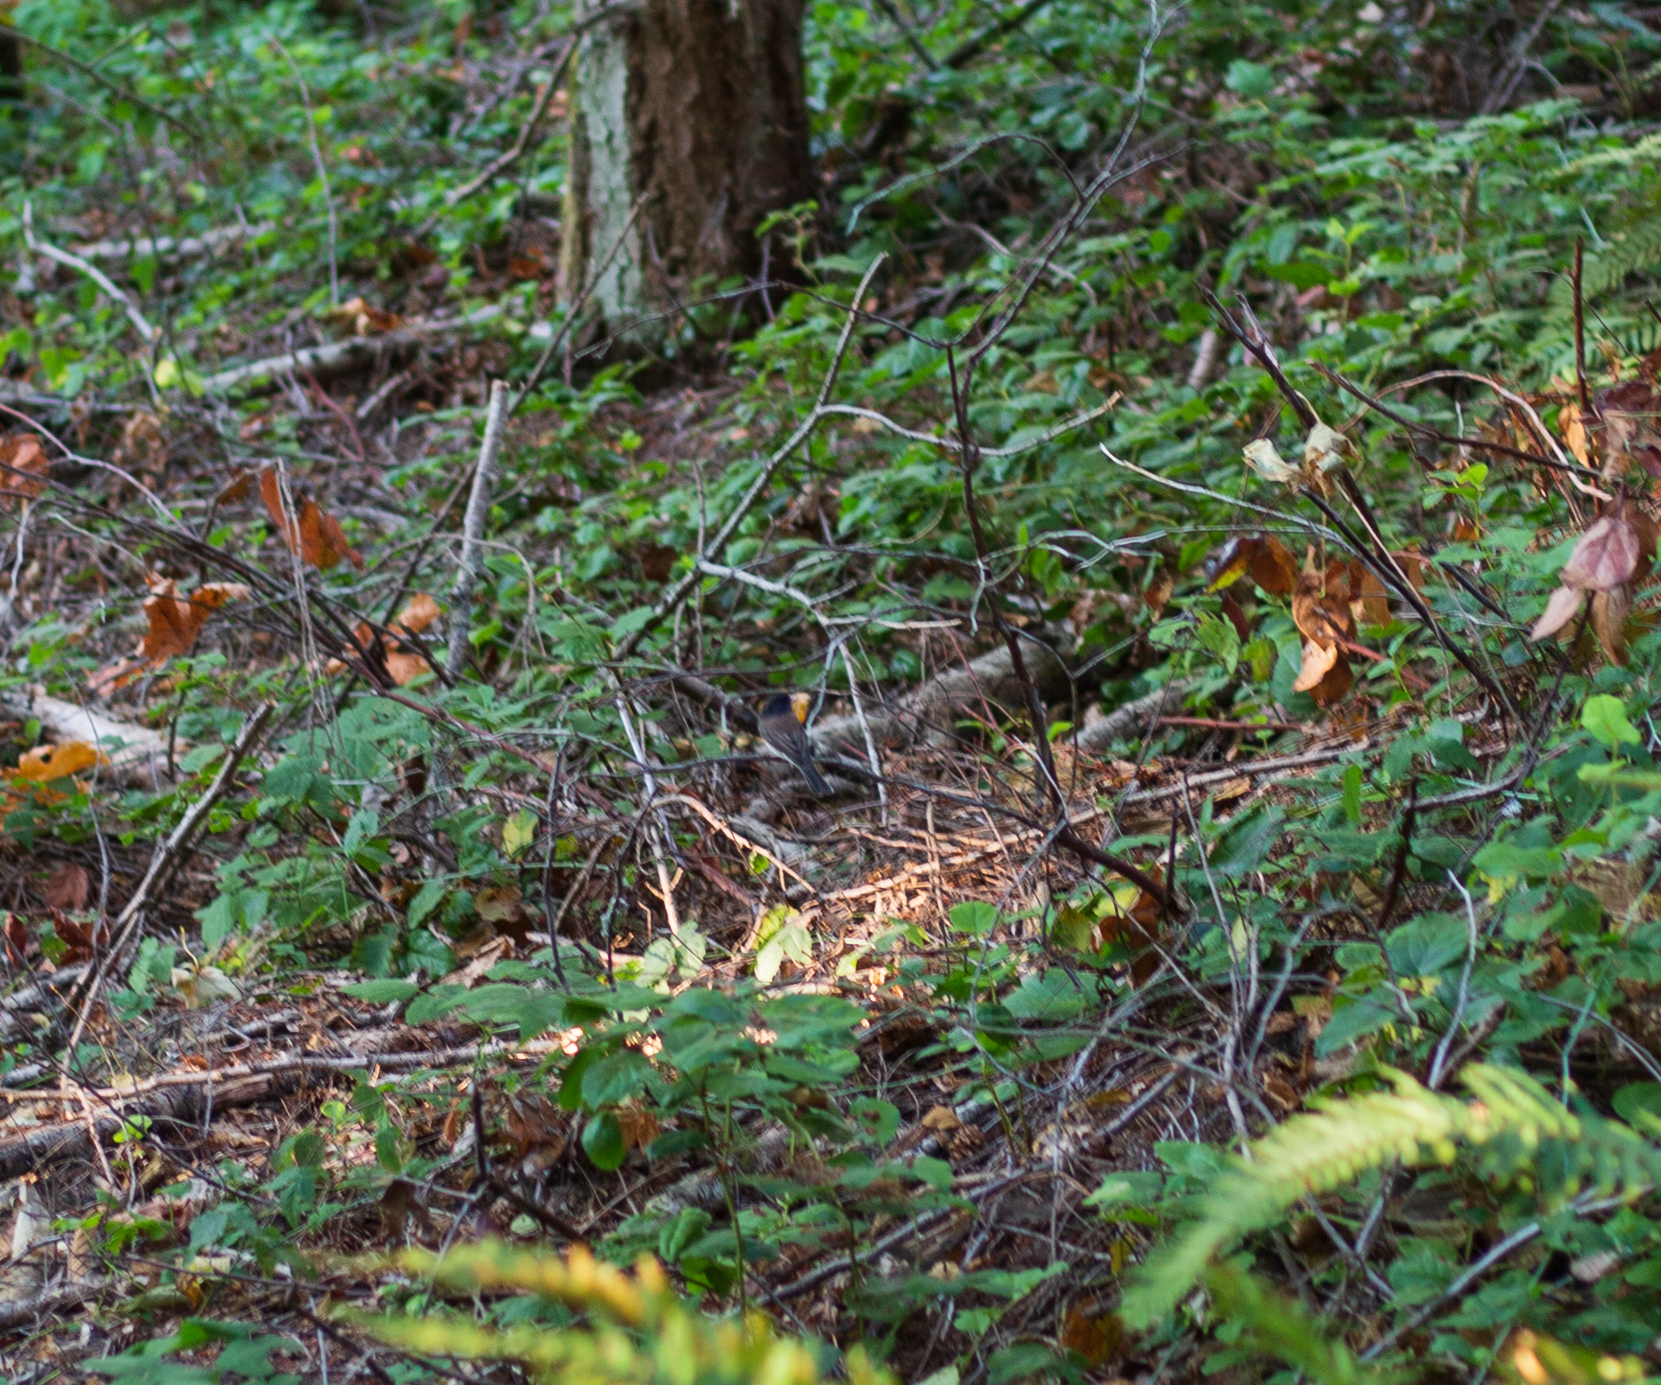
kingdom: Animalia
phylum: Chordata
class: Aves
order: Passeriformes
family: Passerellidae
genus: Junco
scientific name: Junco hyemalis
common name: Dark-eyed junco
